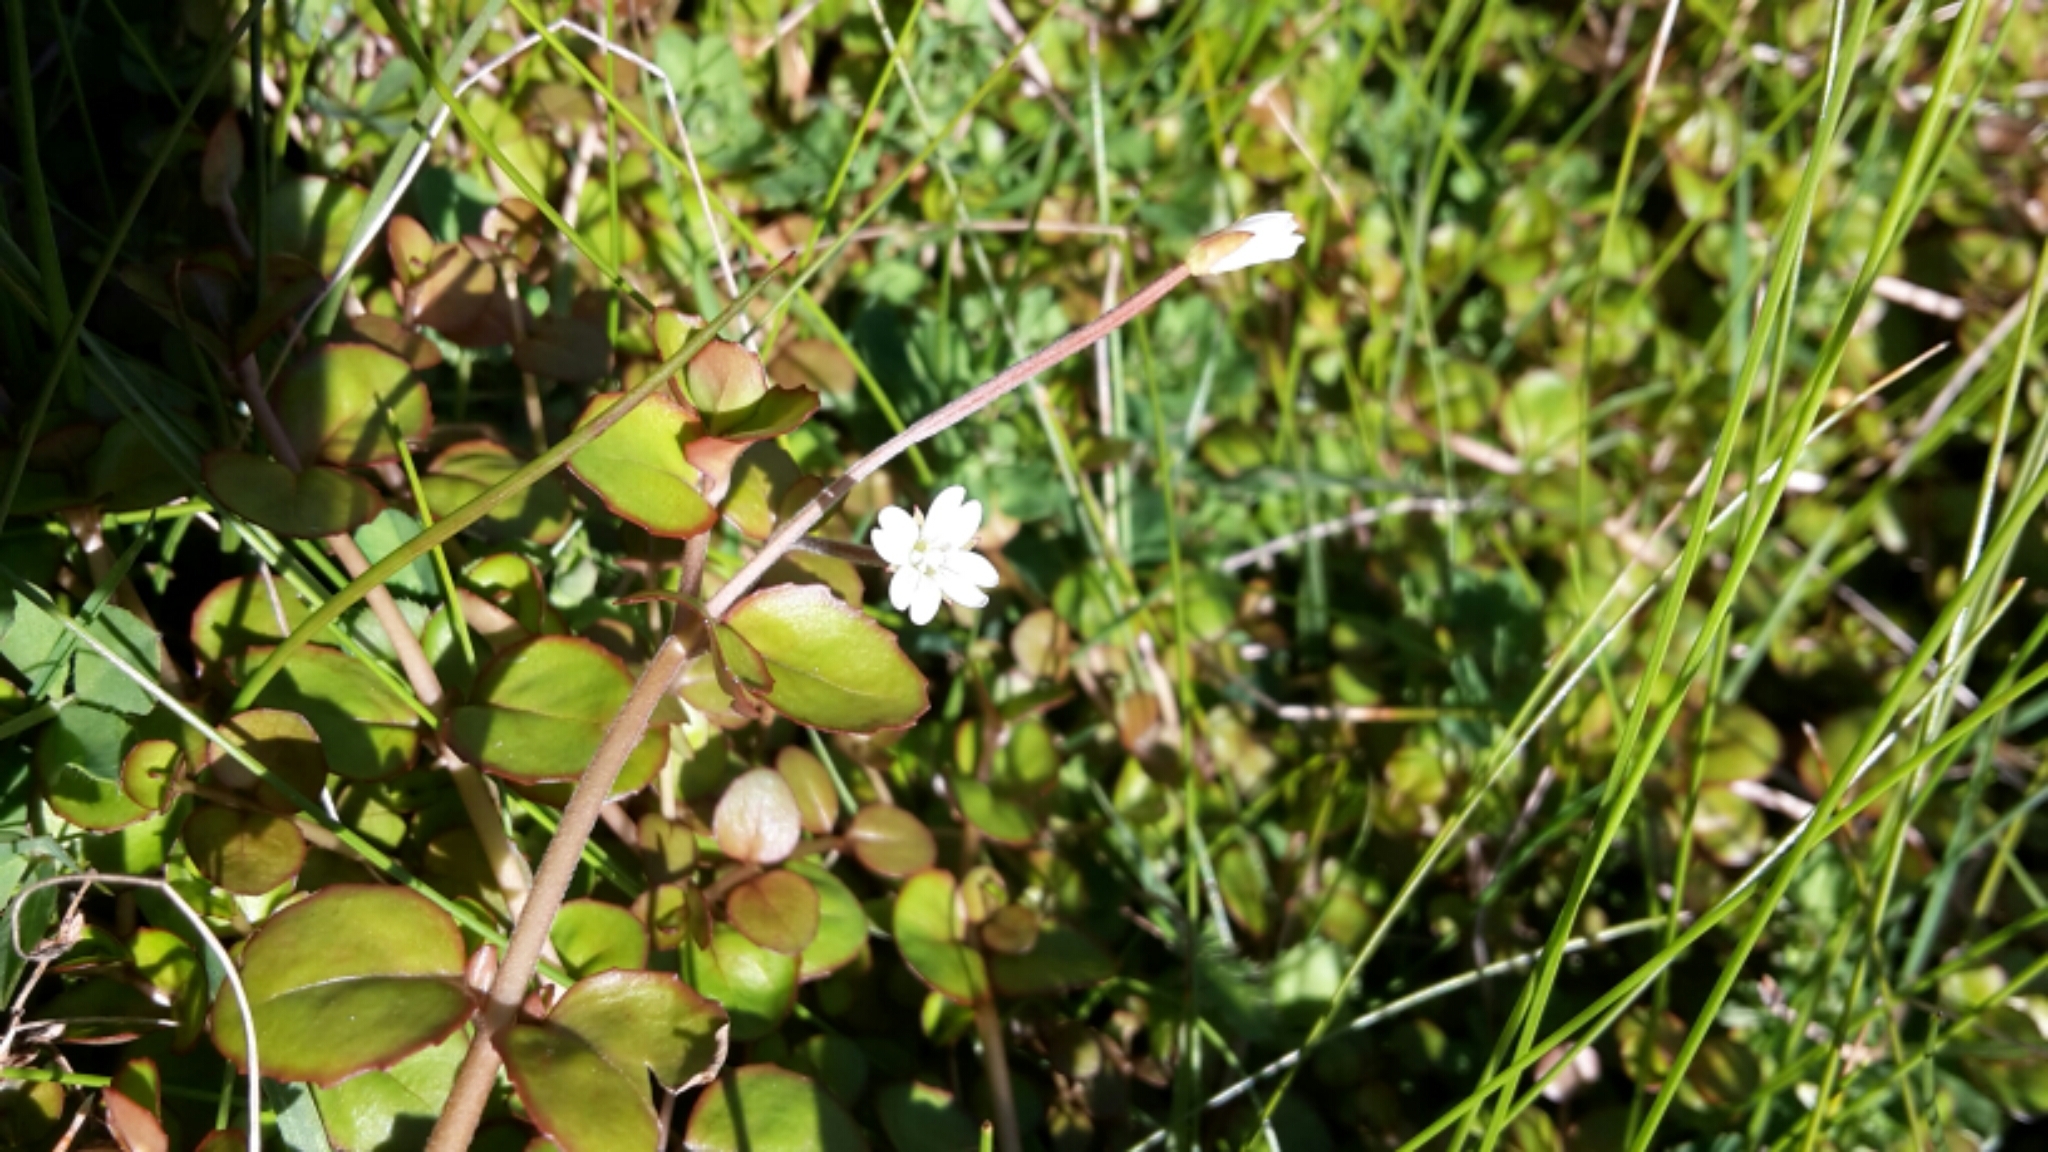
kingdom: Plantae
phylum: Tracheophyta
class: Magnoliopsida
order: Myrtales
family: Onagraceae
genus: Epilobium
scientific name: Epilobium nummularifolium
